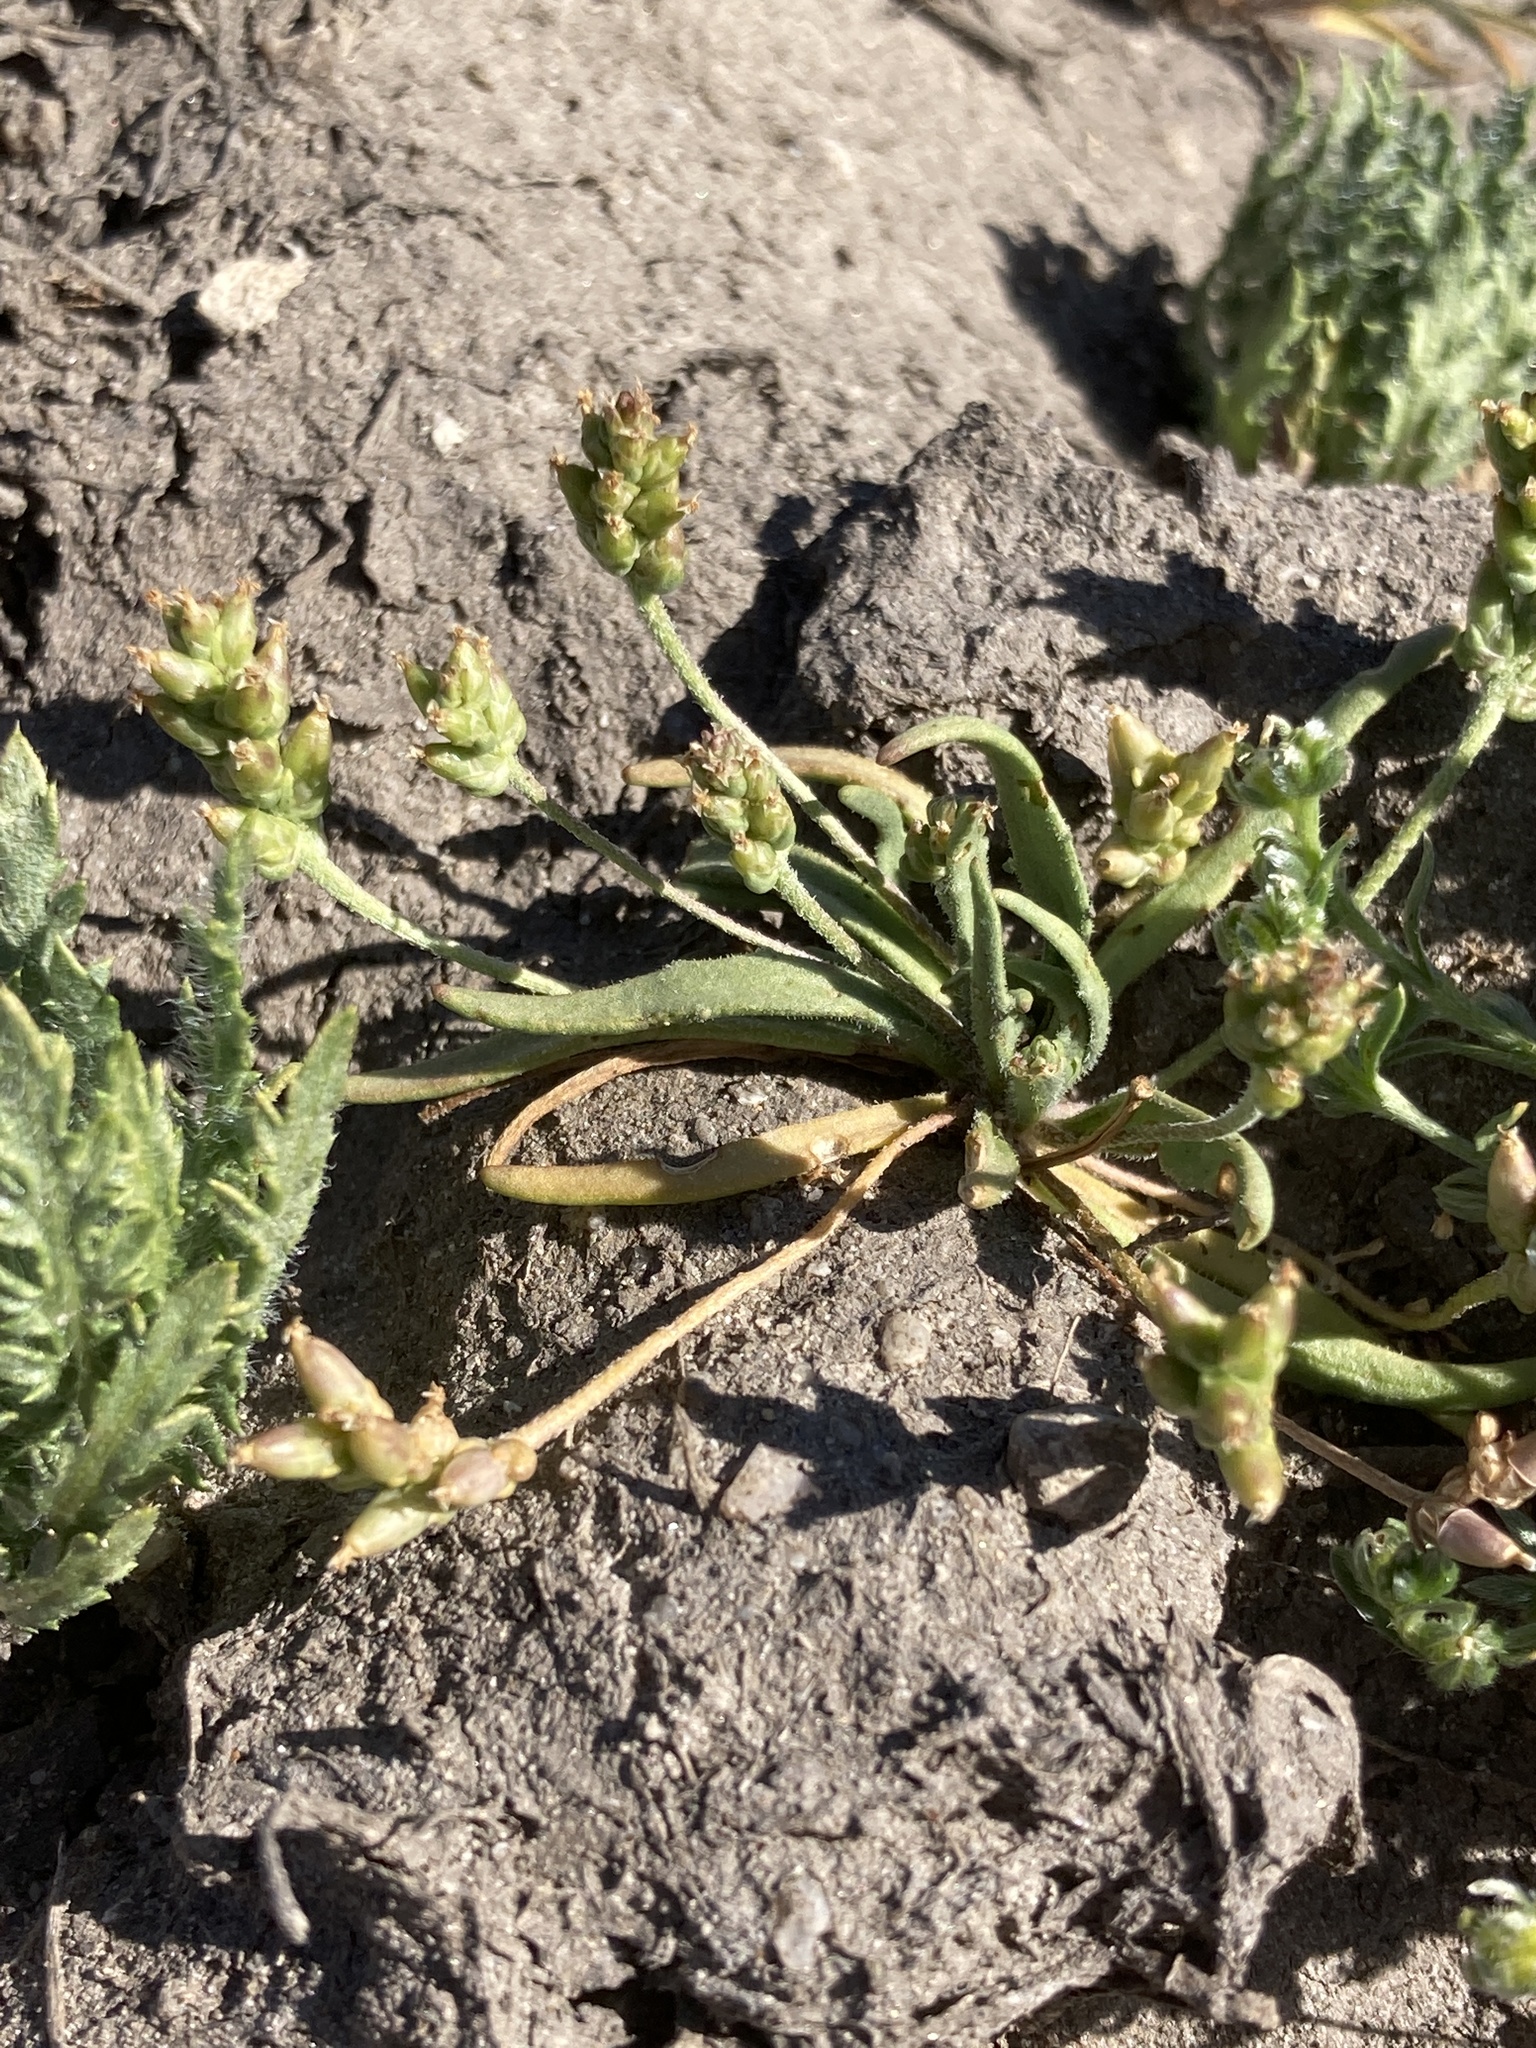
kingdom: Plantae
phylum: Tracheophyta
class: Magnoliopsida
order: Lamiales
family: Plantaginaceae
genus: Plantago
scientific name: Plantago elongata
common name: Linear-leaved plantain
